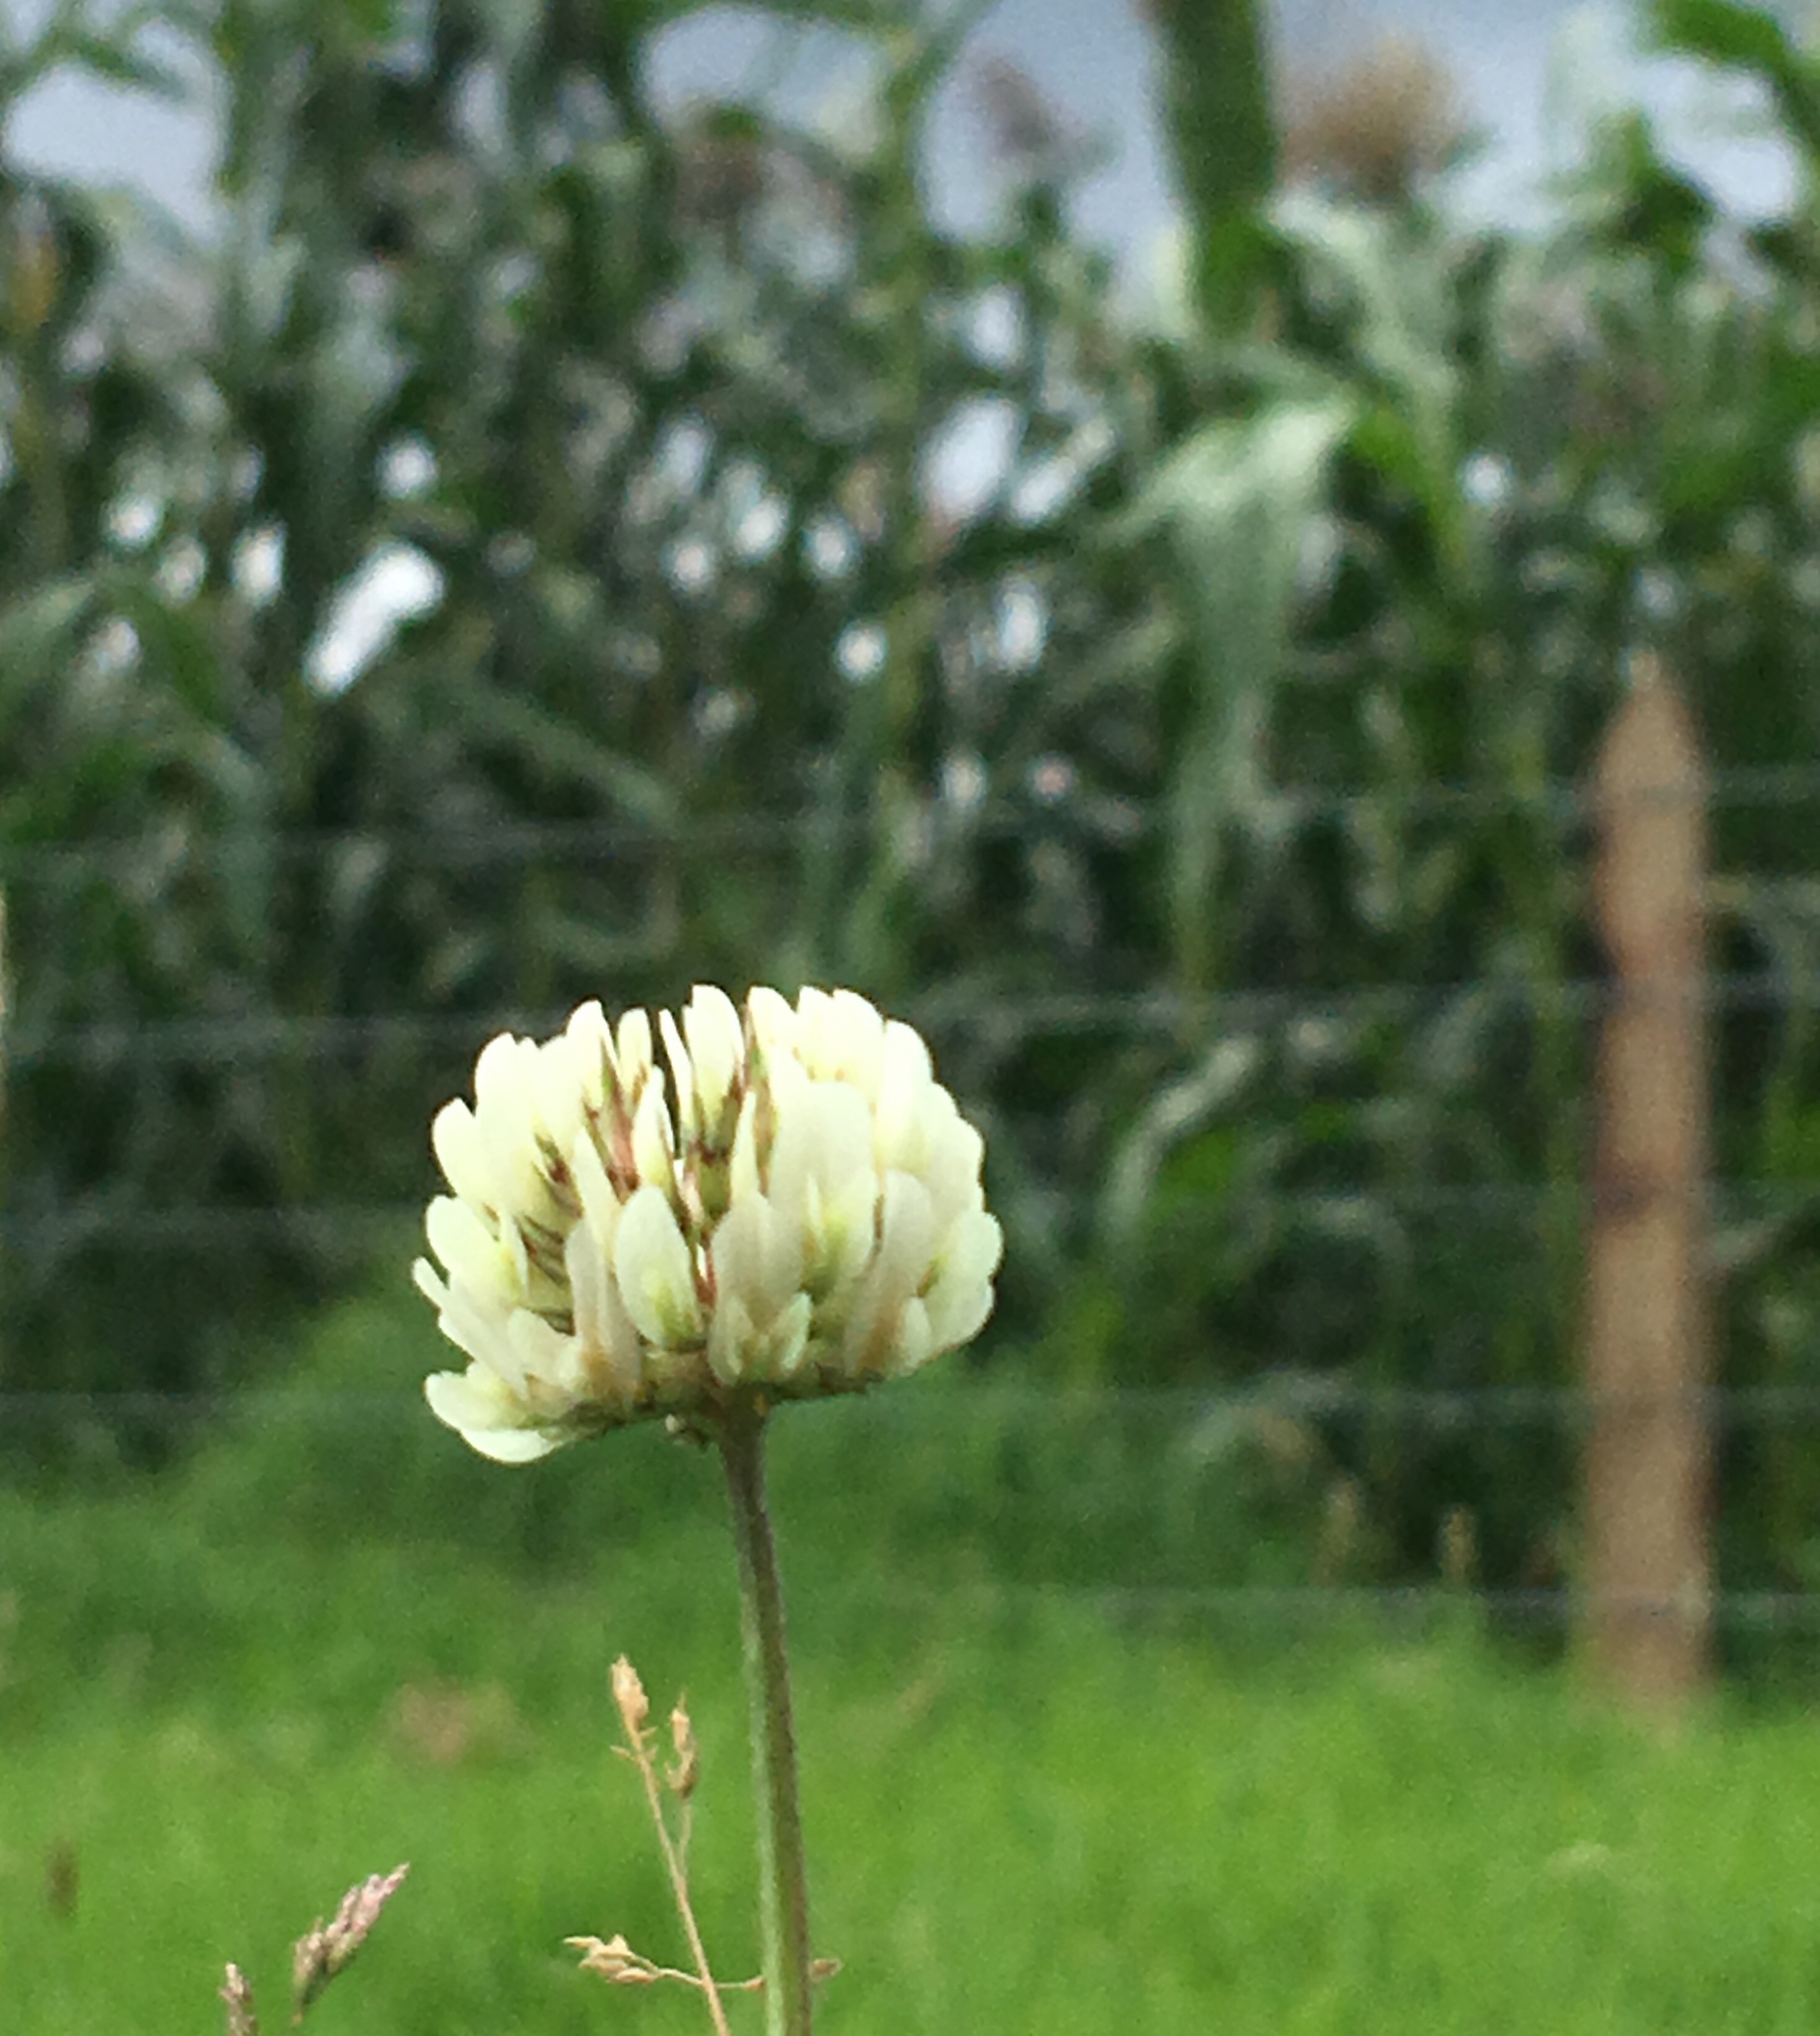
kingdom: Plantae
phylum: Tracheophyta
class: Magnoliopsida
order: Fabales
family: Fabaceae
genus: Trifolium
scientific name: Trifolium repens
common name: White clover
